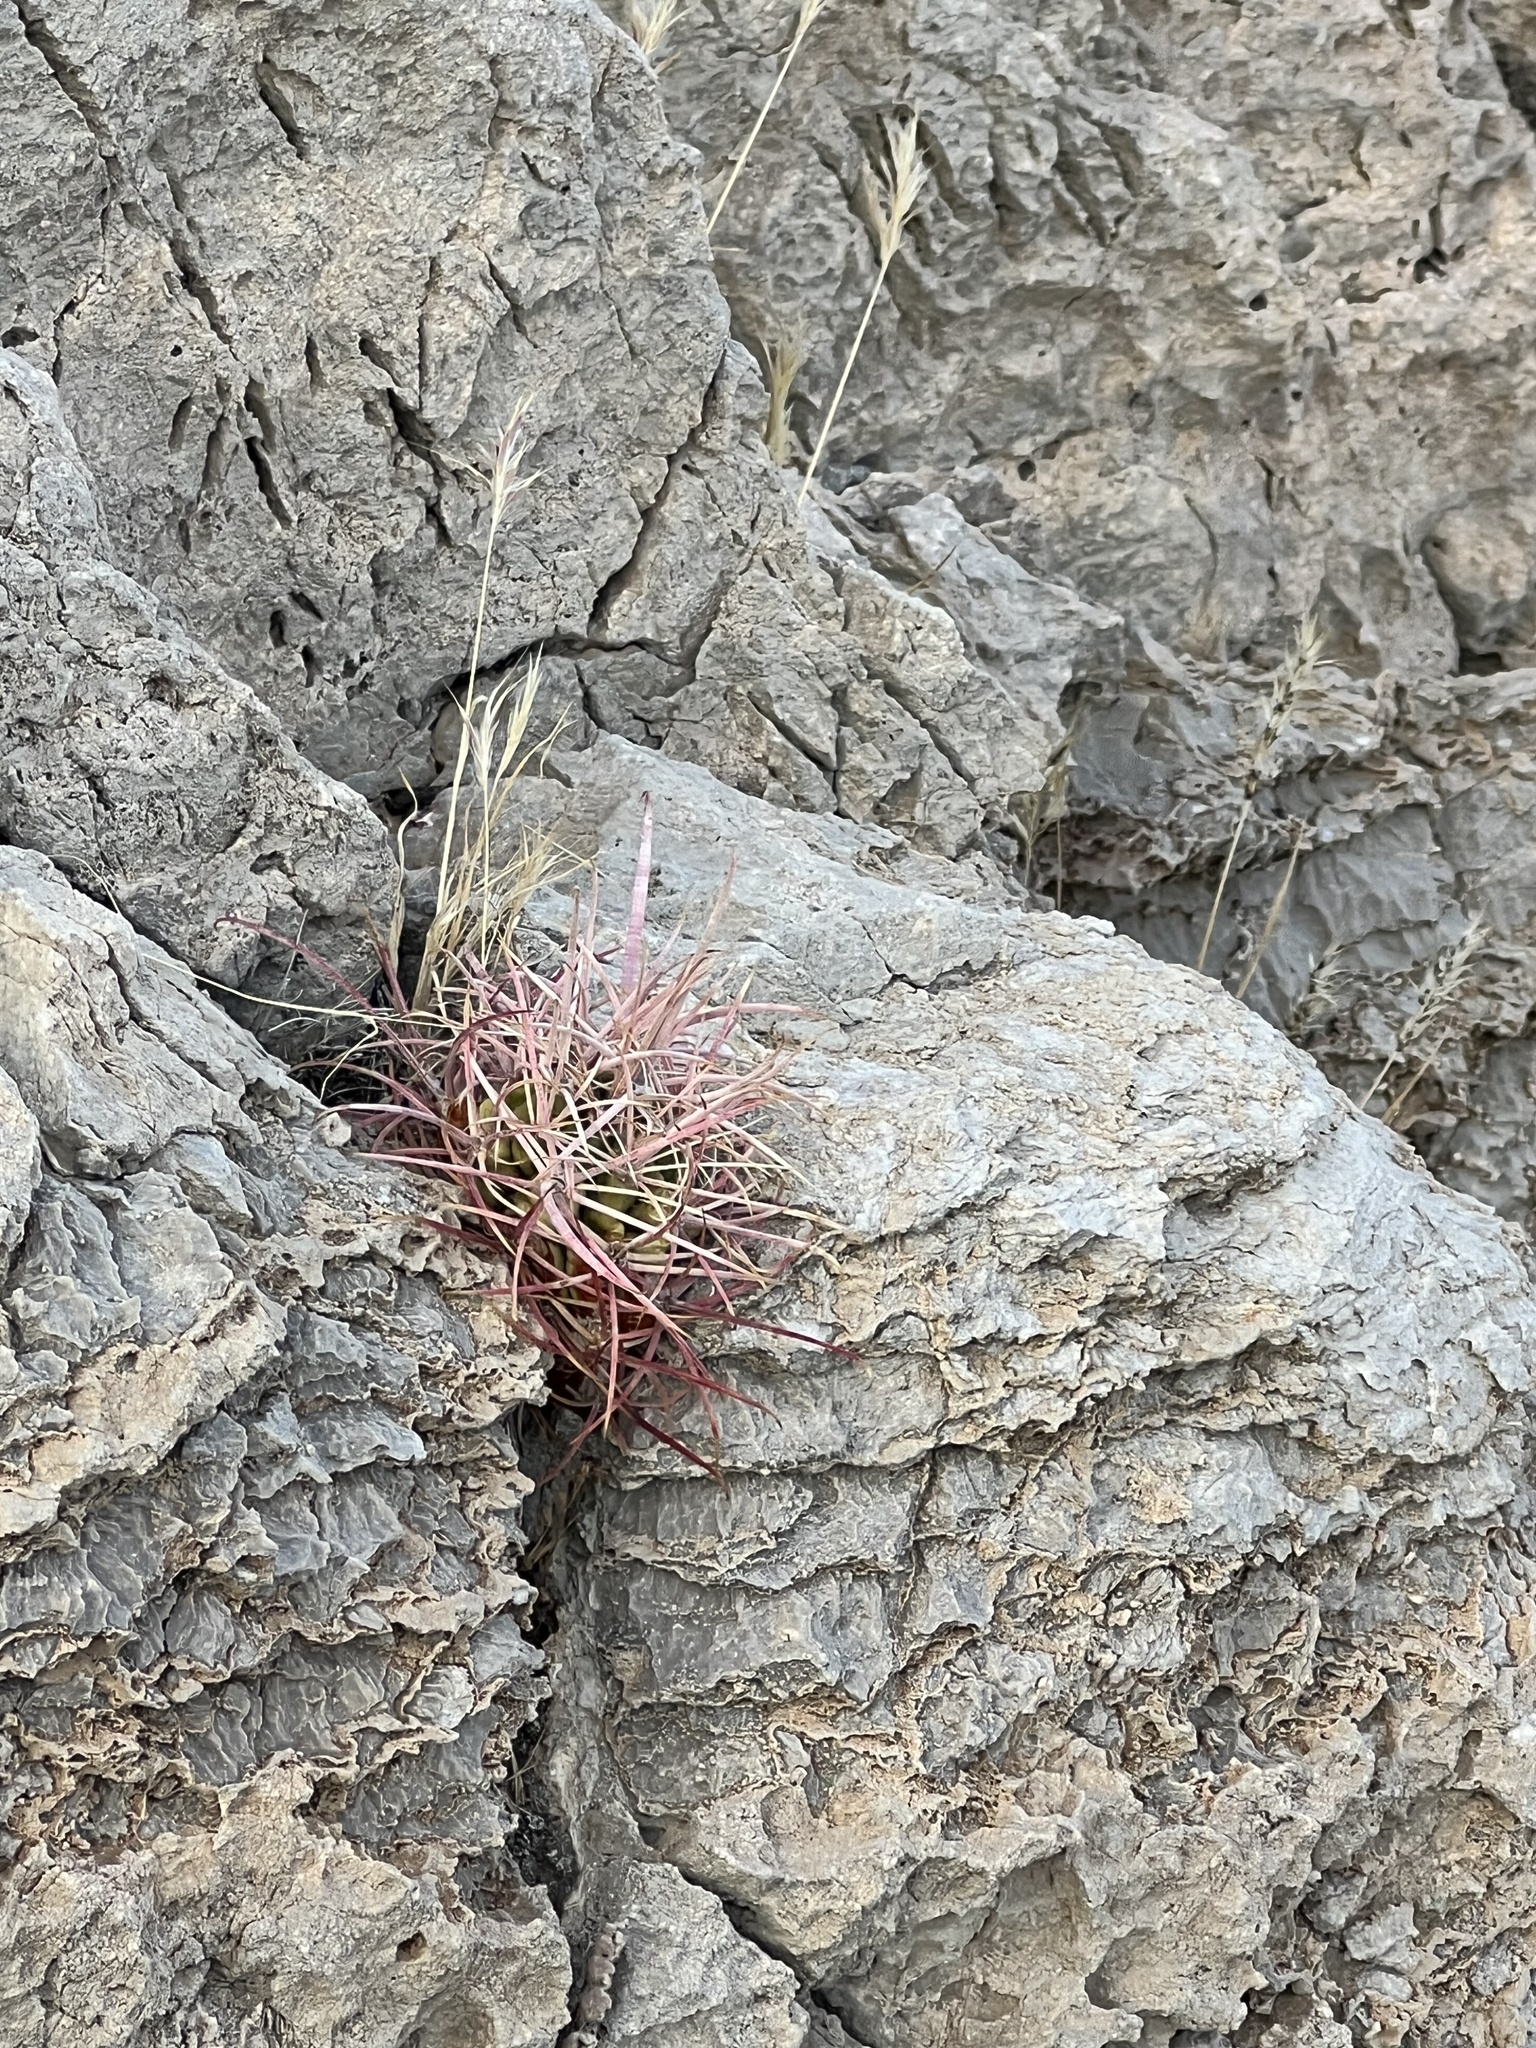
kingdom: Plantae
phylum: Tracheophyta
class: Magnoliopsida
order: Caryophyllales
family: Cactaceae
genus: Ferocactus
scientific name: Ferocactus cylindraceus
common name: California barrel cactus
